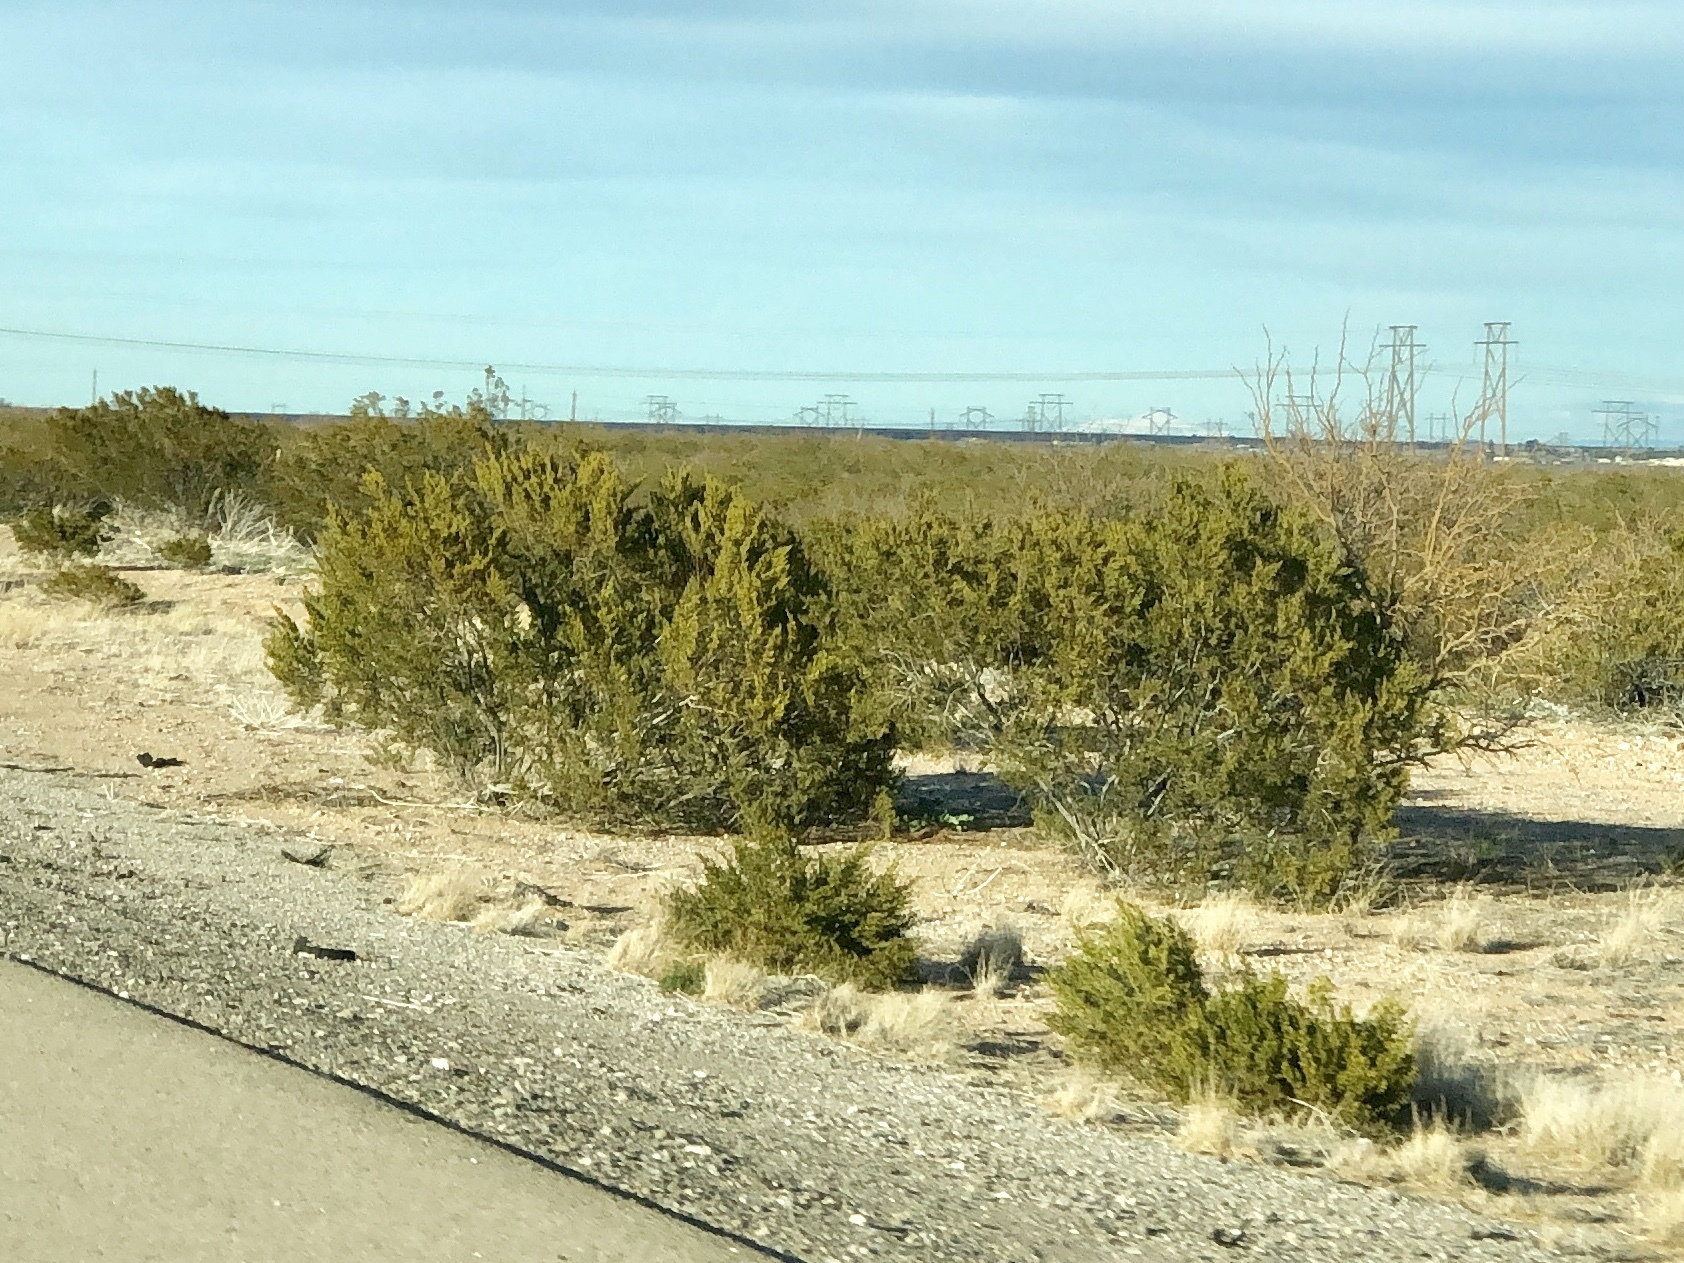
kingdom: Plantae
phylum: Tracheophyta
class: Magnoliopsida
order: Zygophyllales
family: Zygophyllaceae
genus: Larrea
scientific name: Larrea tridentata
